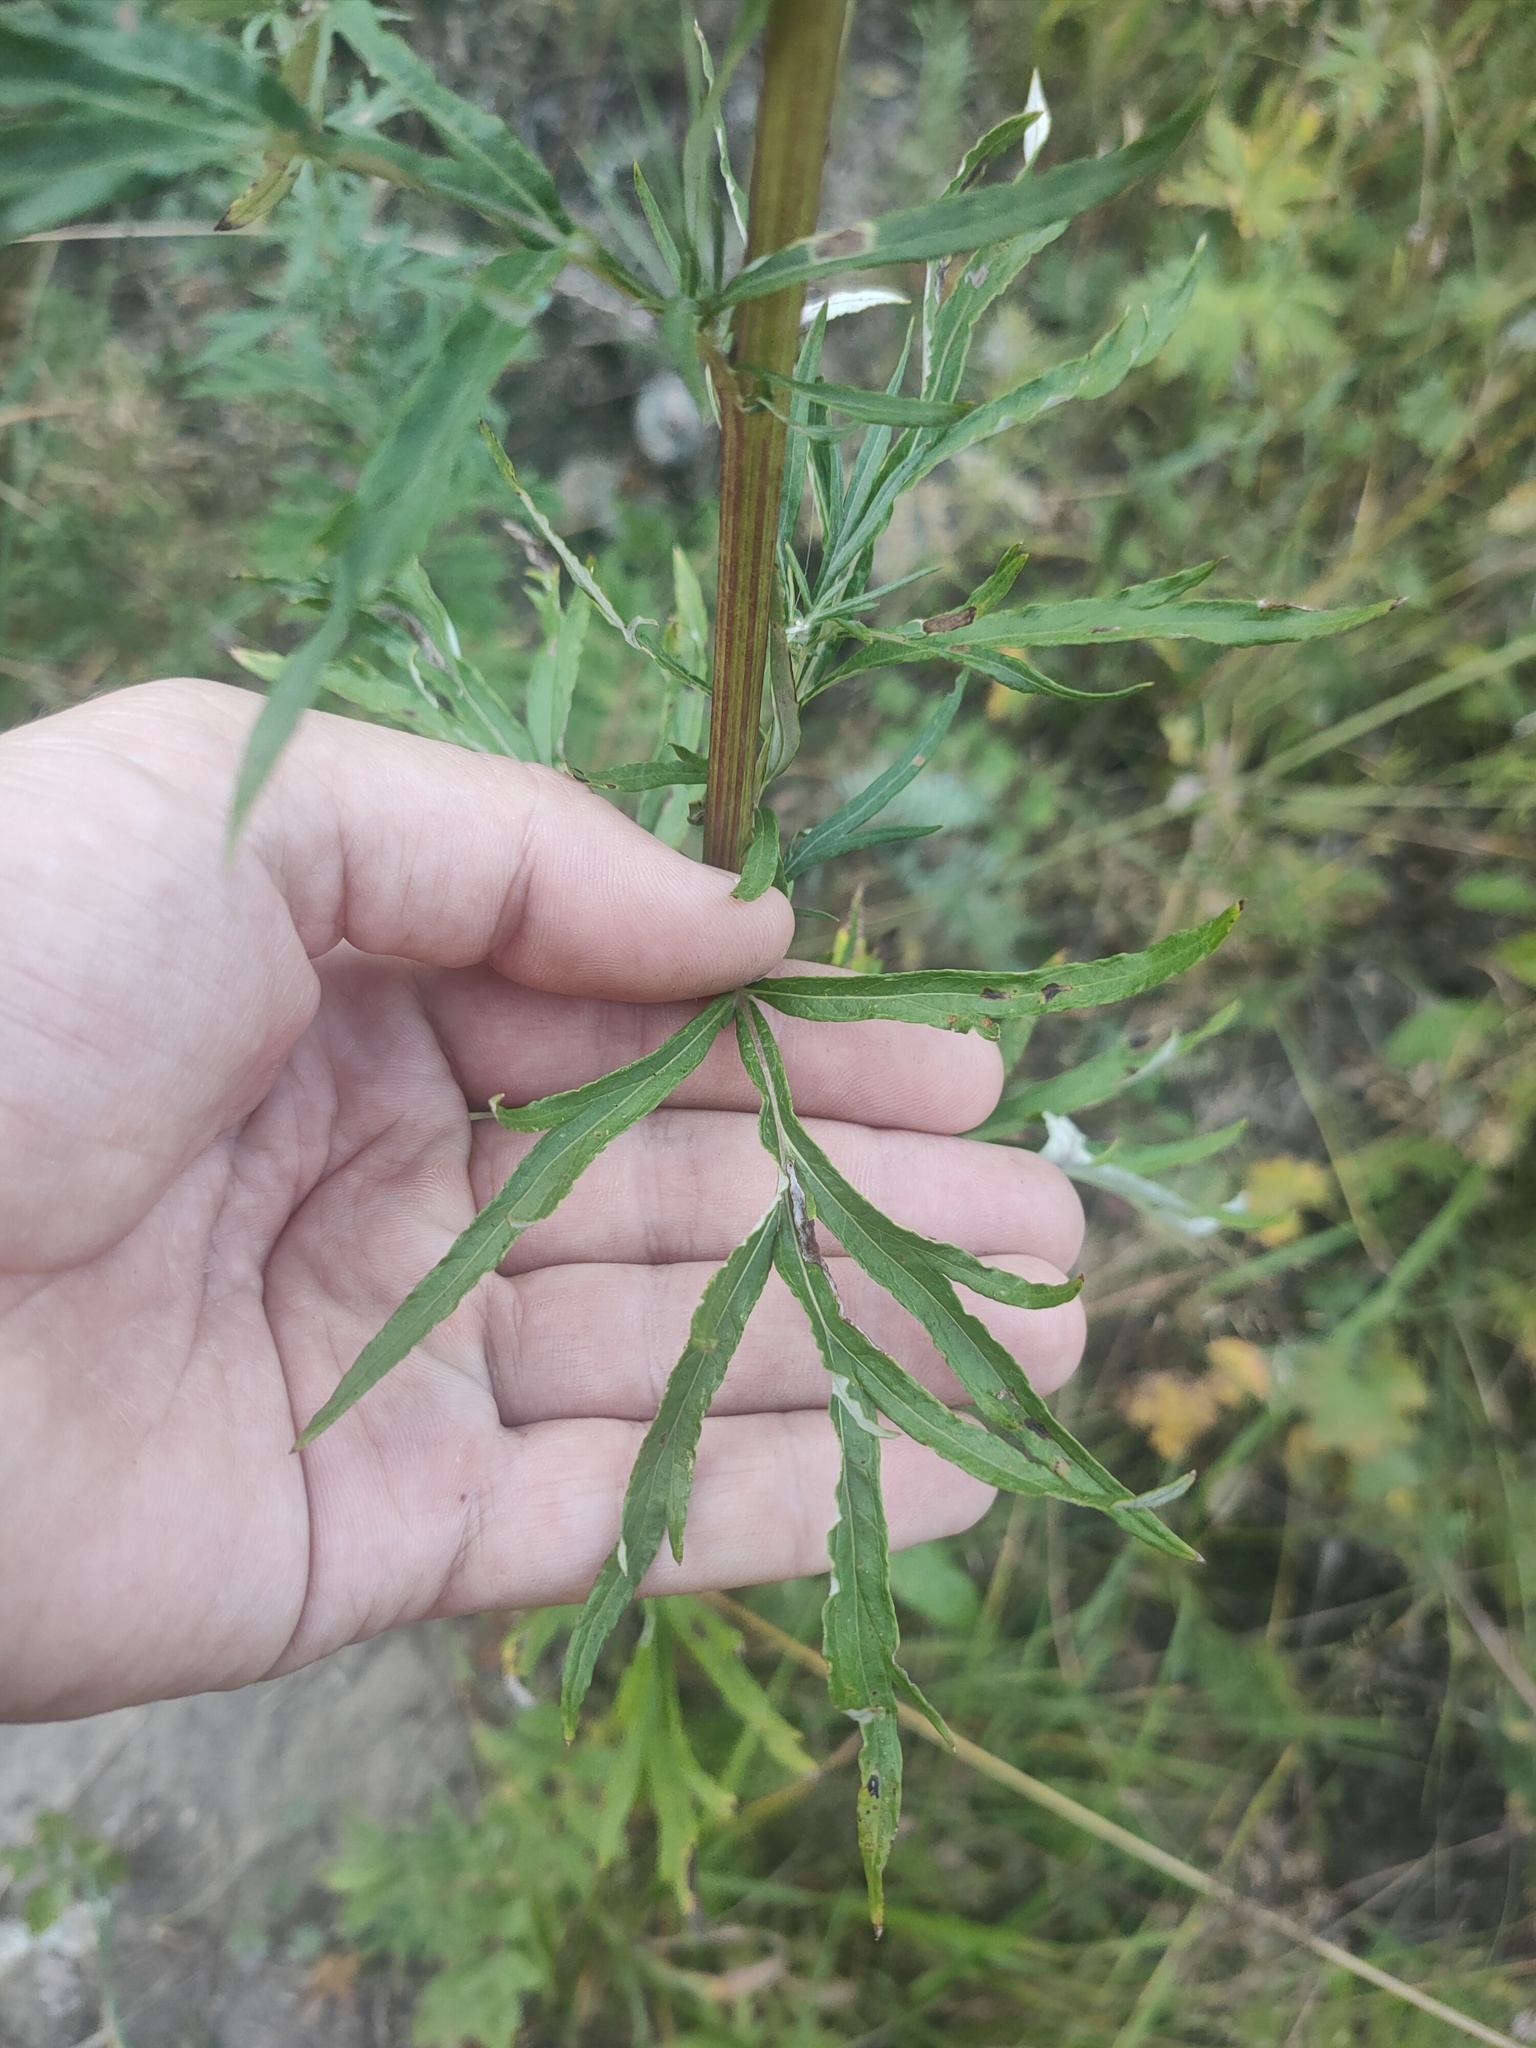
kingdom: Plantae
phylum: Tracheophyta
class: Magnoliopsida
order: Asterales
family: Asteraceae
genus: Artemisia
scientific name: Artemisia vulgaris
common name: Mugwort
